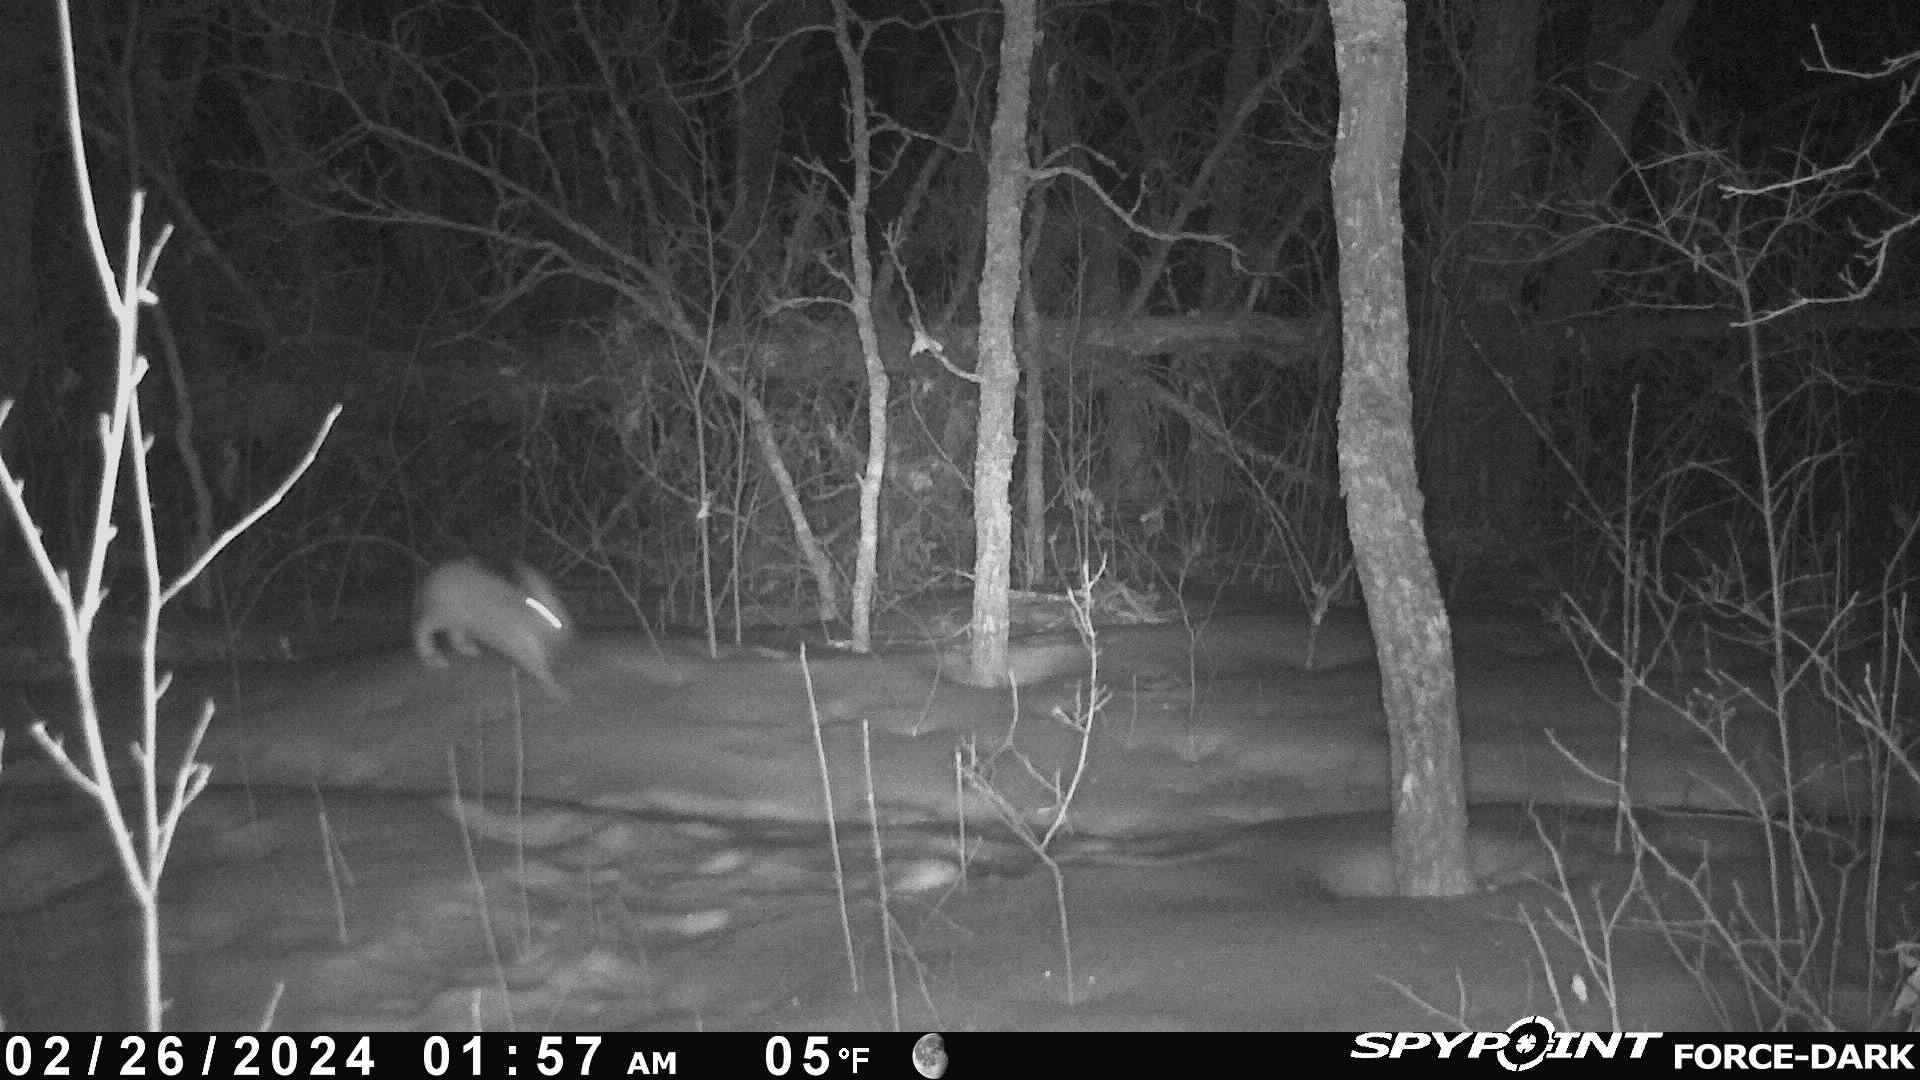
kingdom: Animalia
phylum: Chordata
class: Mammalia
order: Lagomorpha
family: Leporidae
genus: Lepus
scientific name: Lepus americanus
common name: Snowshoe hare
